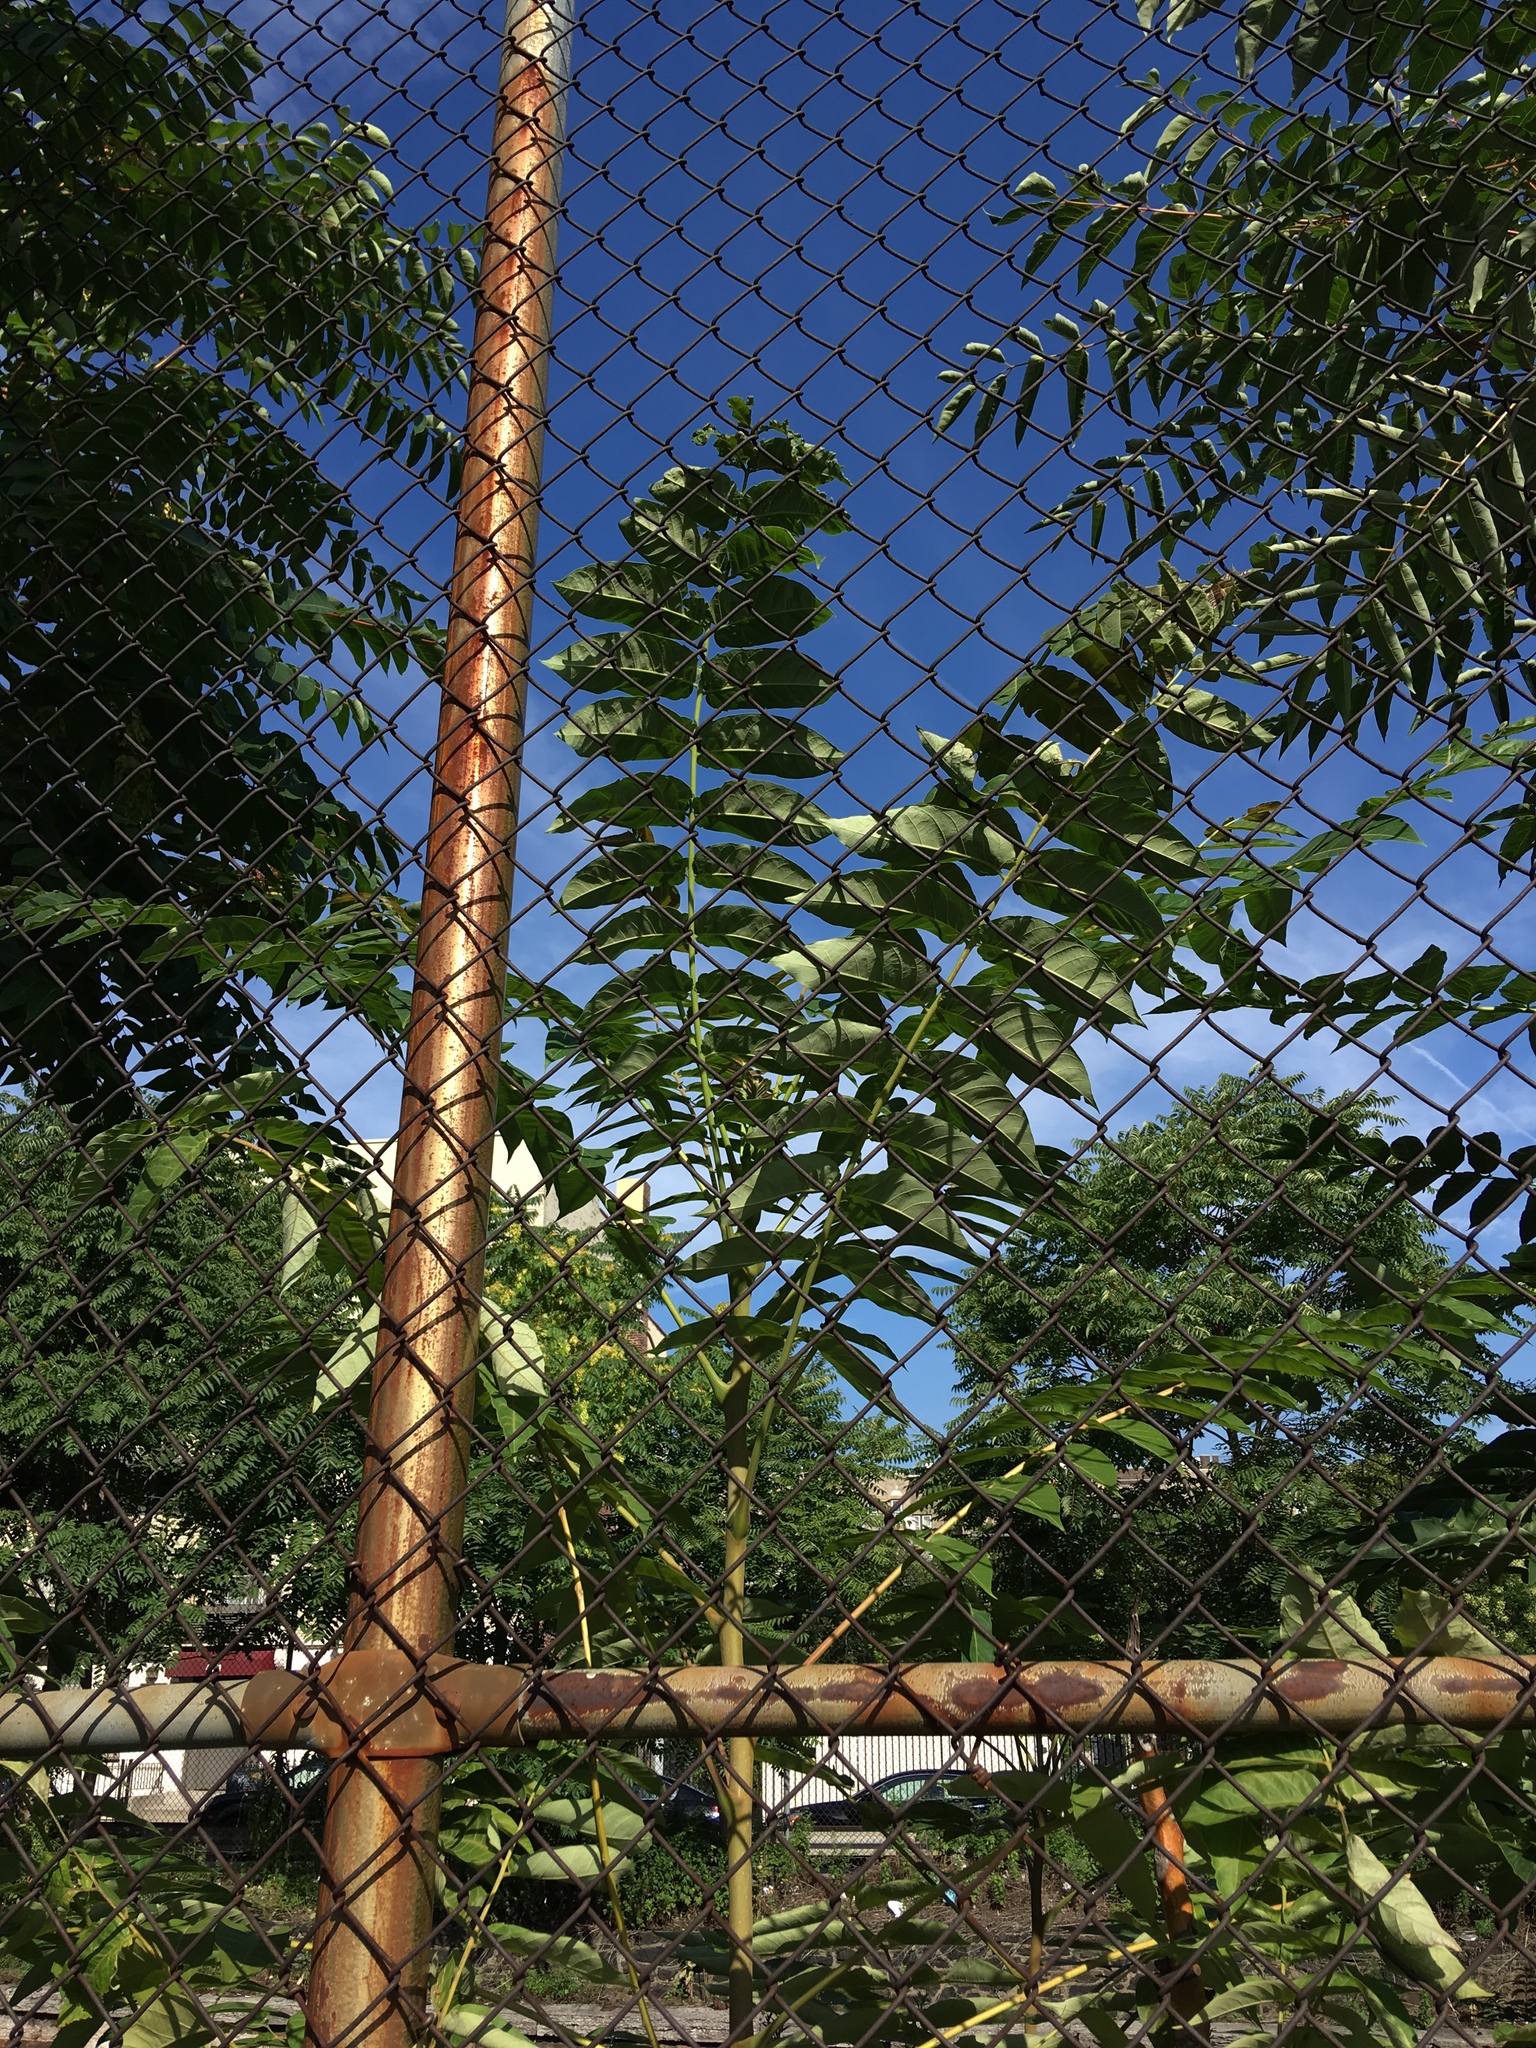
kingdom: Plantae
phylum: Tracheophyta
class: Magnoliopsida
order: Sapindales
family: Simaroubaceae
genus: Ailanthus
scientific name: Ailanthus altissima
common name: Tree-of-heaven
